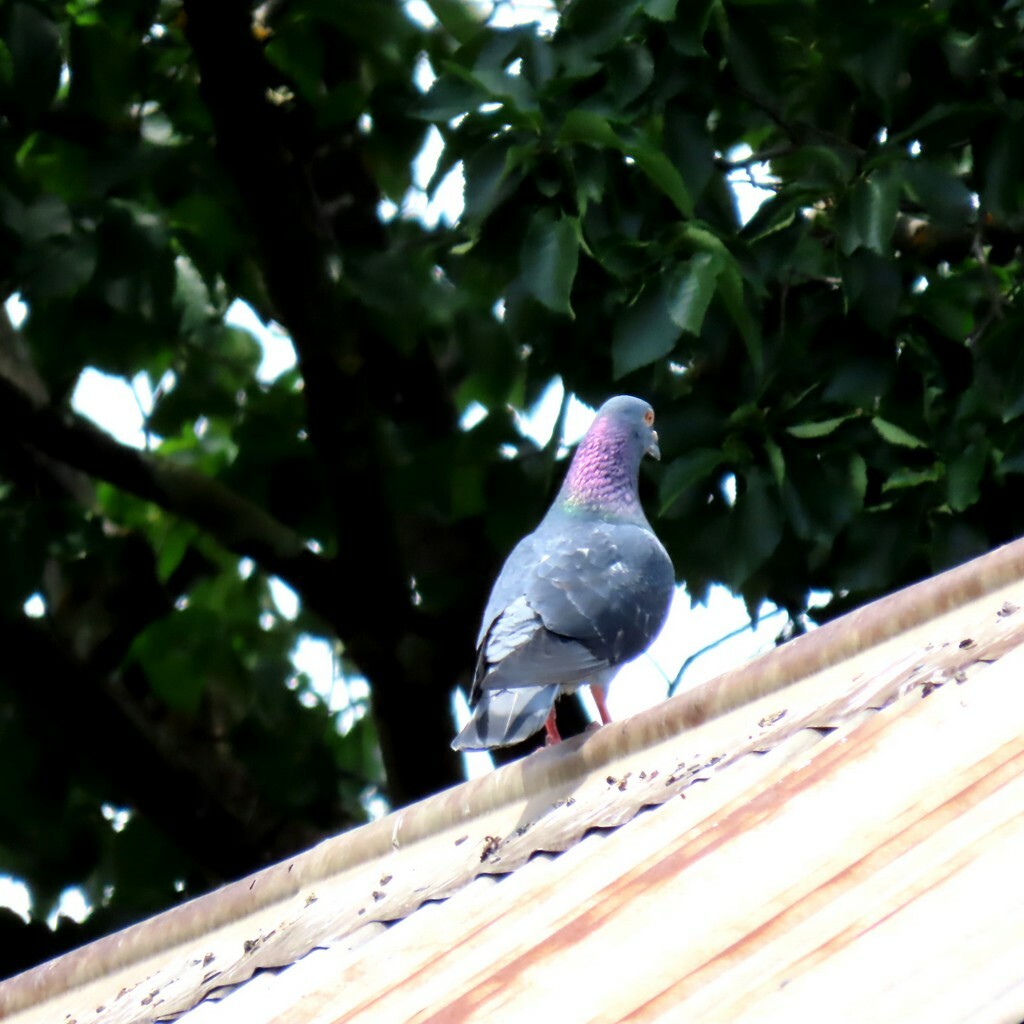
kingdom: Animalia
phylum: Chordata
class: Aves
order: Columbiformes
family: Columbidae
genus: Columba
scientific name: Columba livia
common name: Rock pigeon
